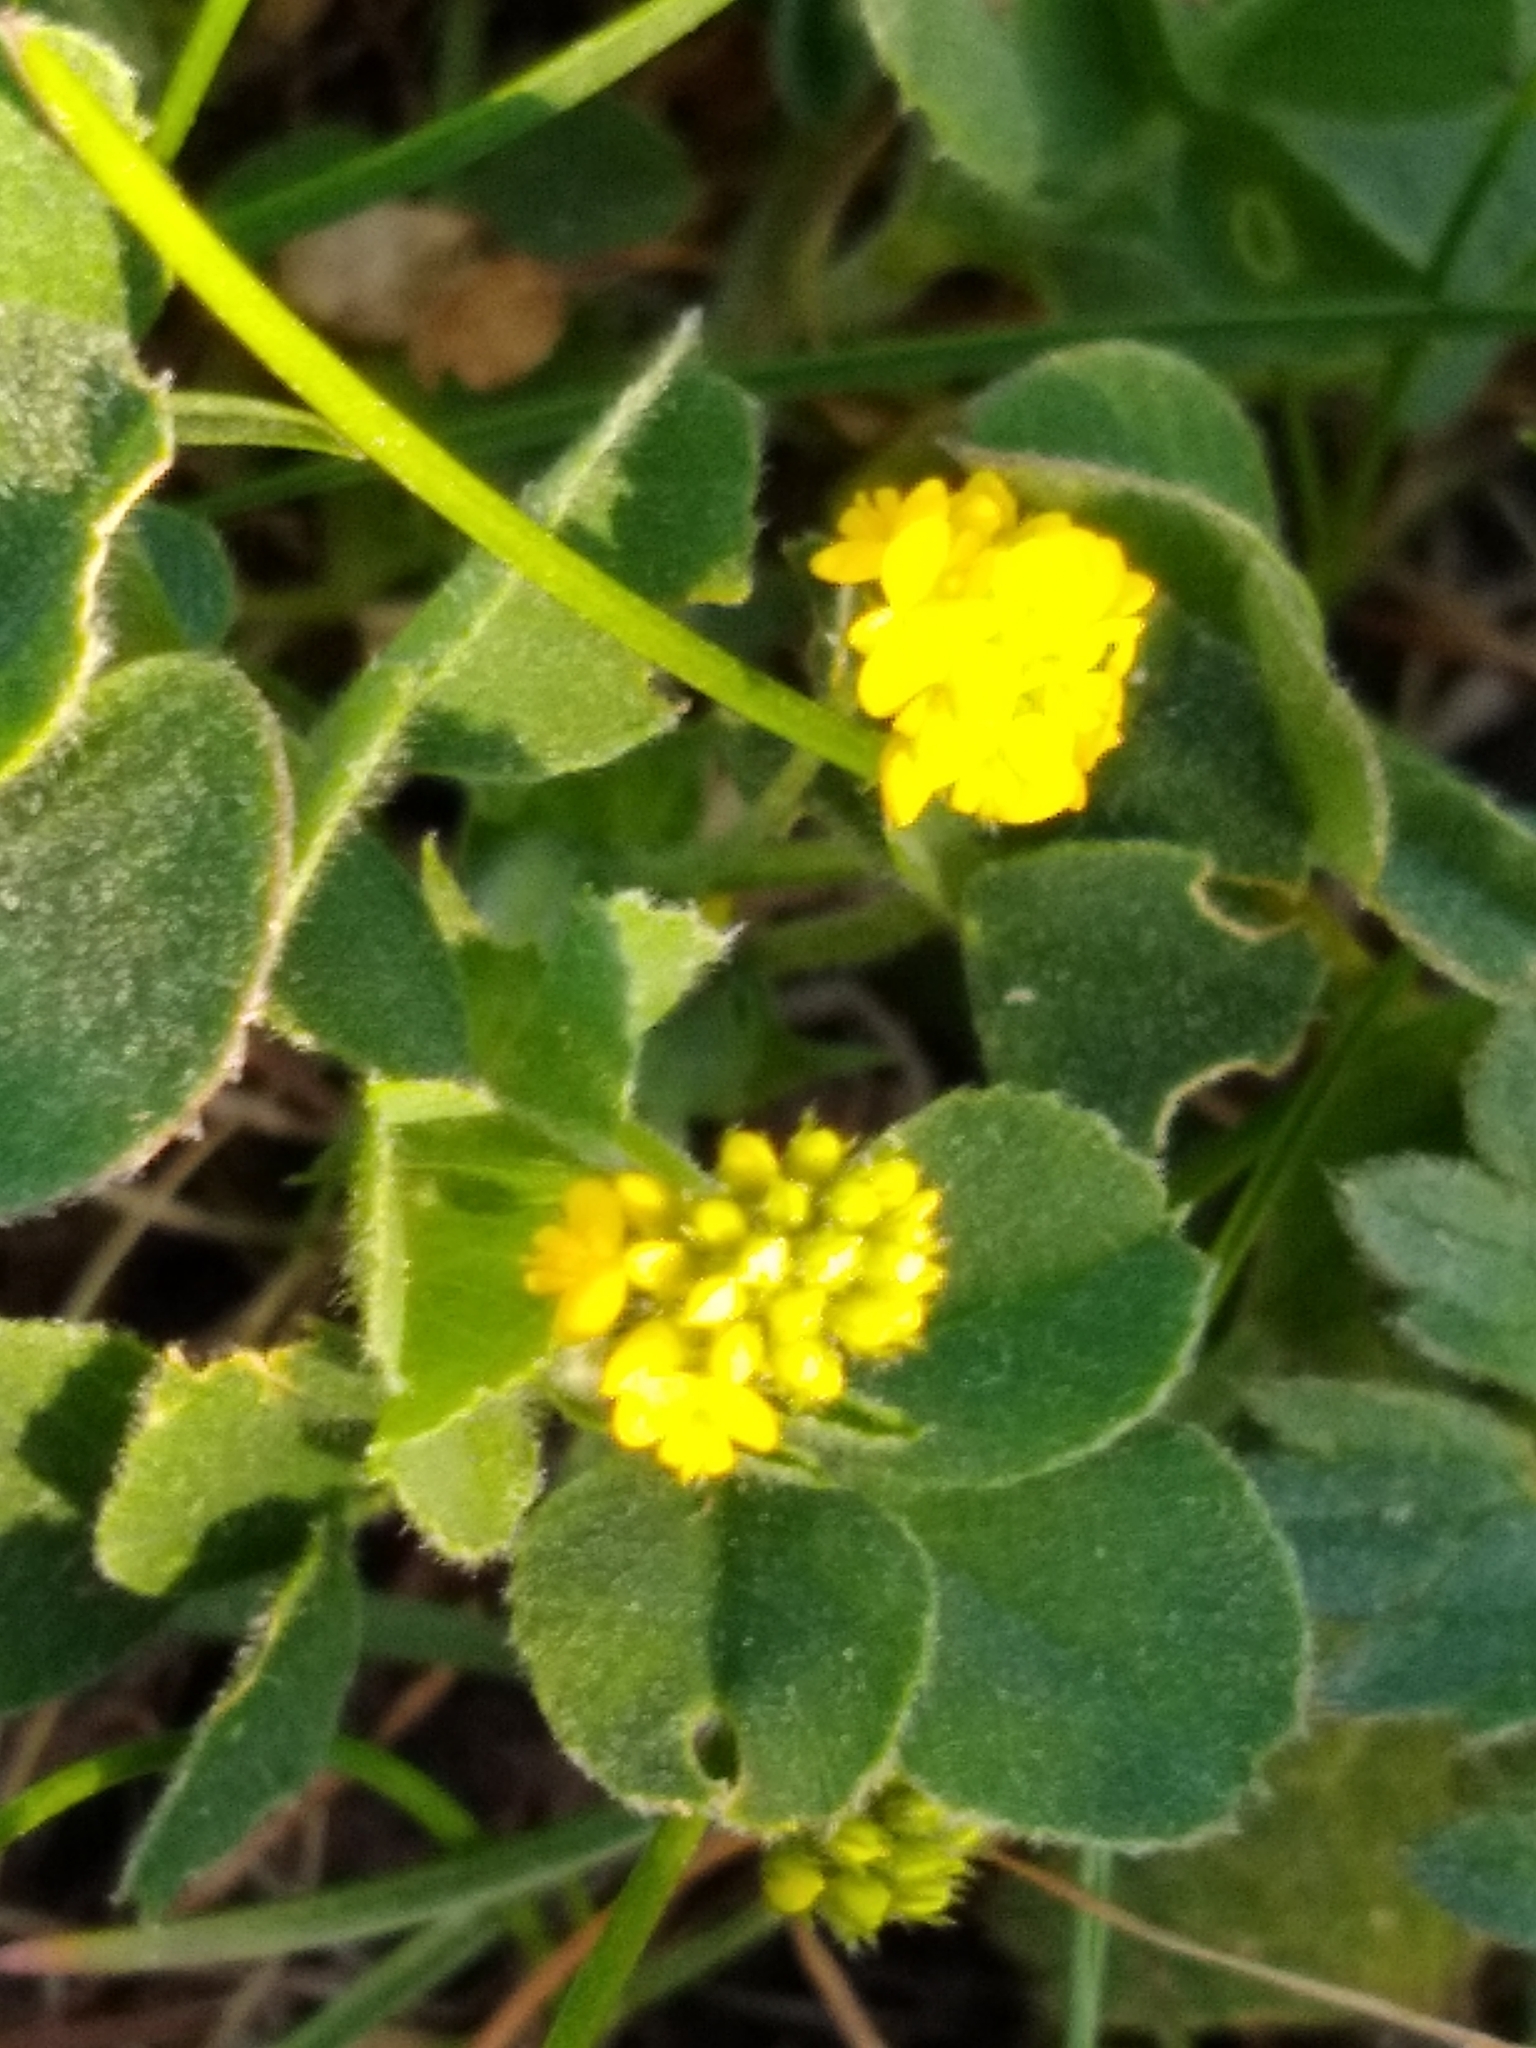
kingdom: Plantae
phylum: Tracheophyta
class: Magnoliopsida
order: Fabales
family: Fabaceae
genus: Medicago
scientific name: Medicago lupulina
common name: Black medick
